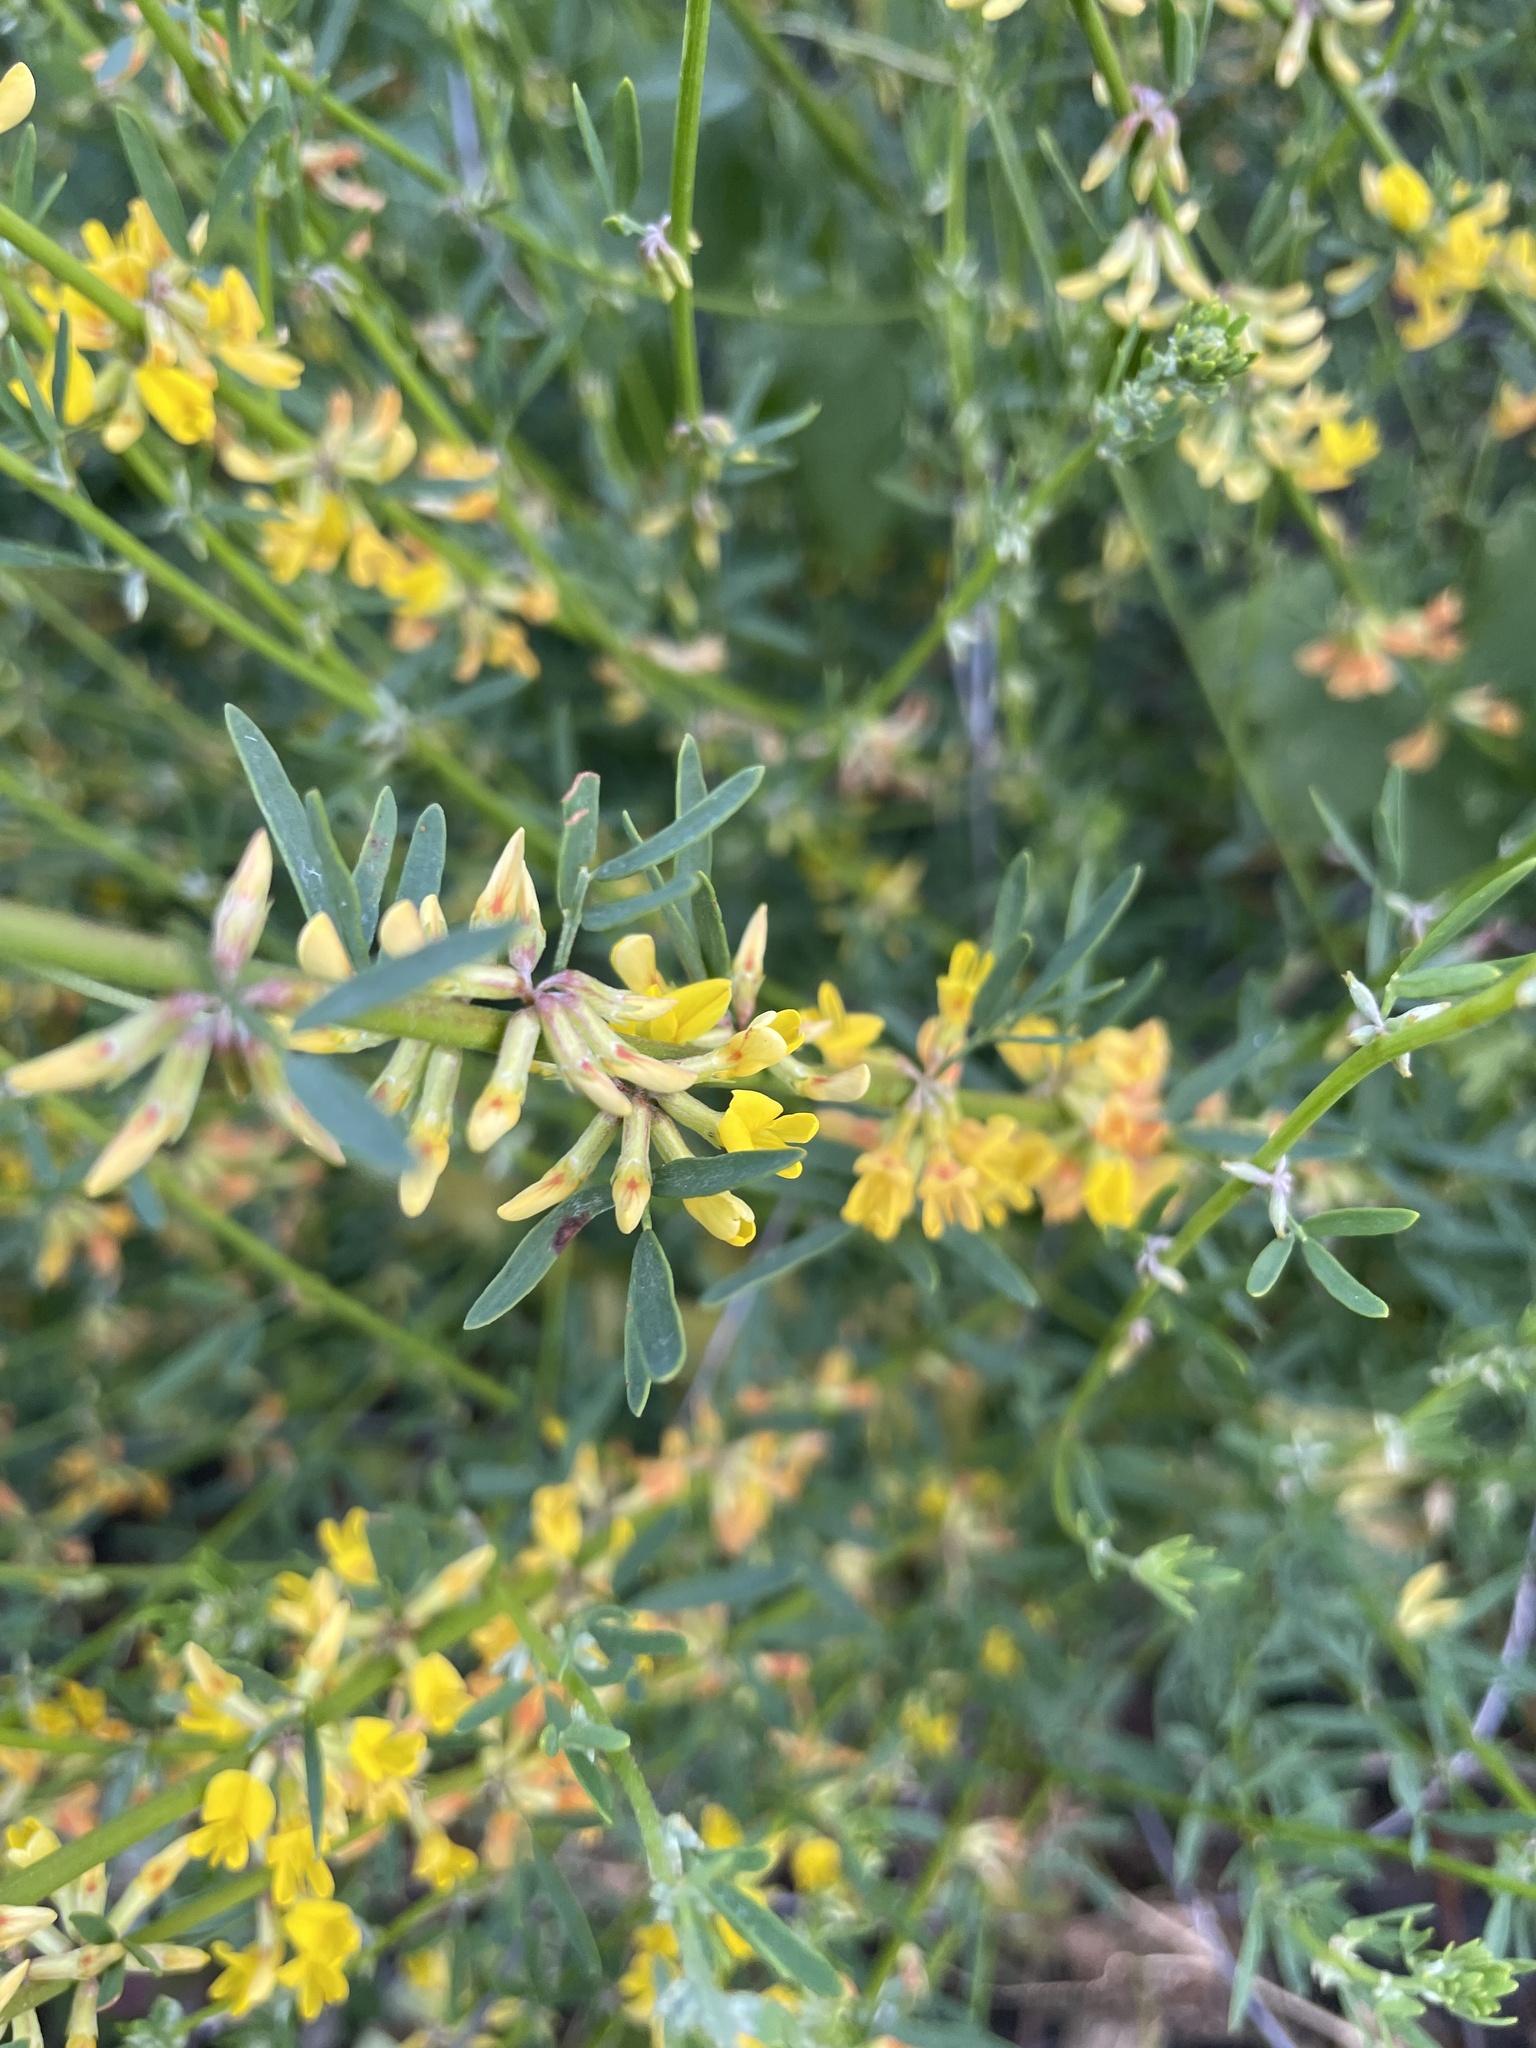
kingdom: Plantae
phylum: Tracheophyta
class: Magnoliopsida
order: Fabales
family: Fabaceae
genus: Acmispon
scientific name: Acmispon glaber
